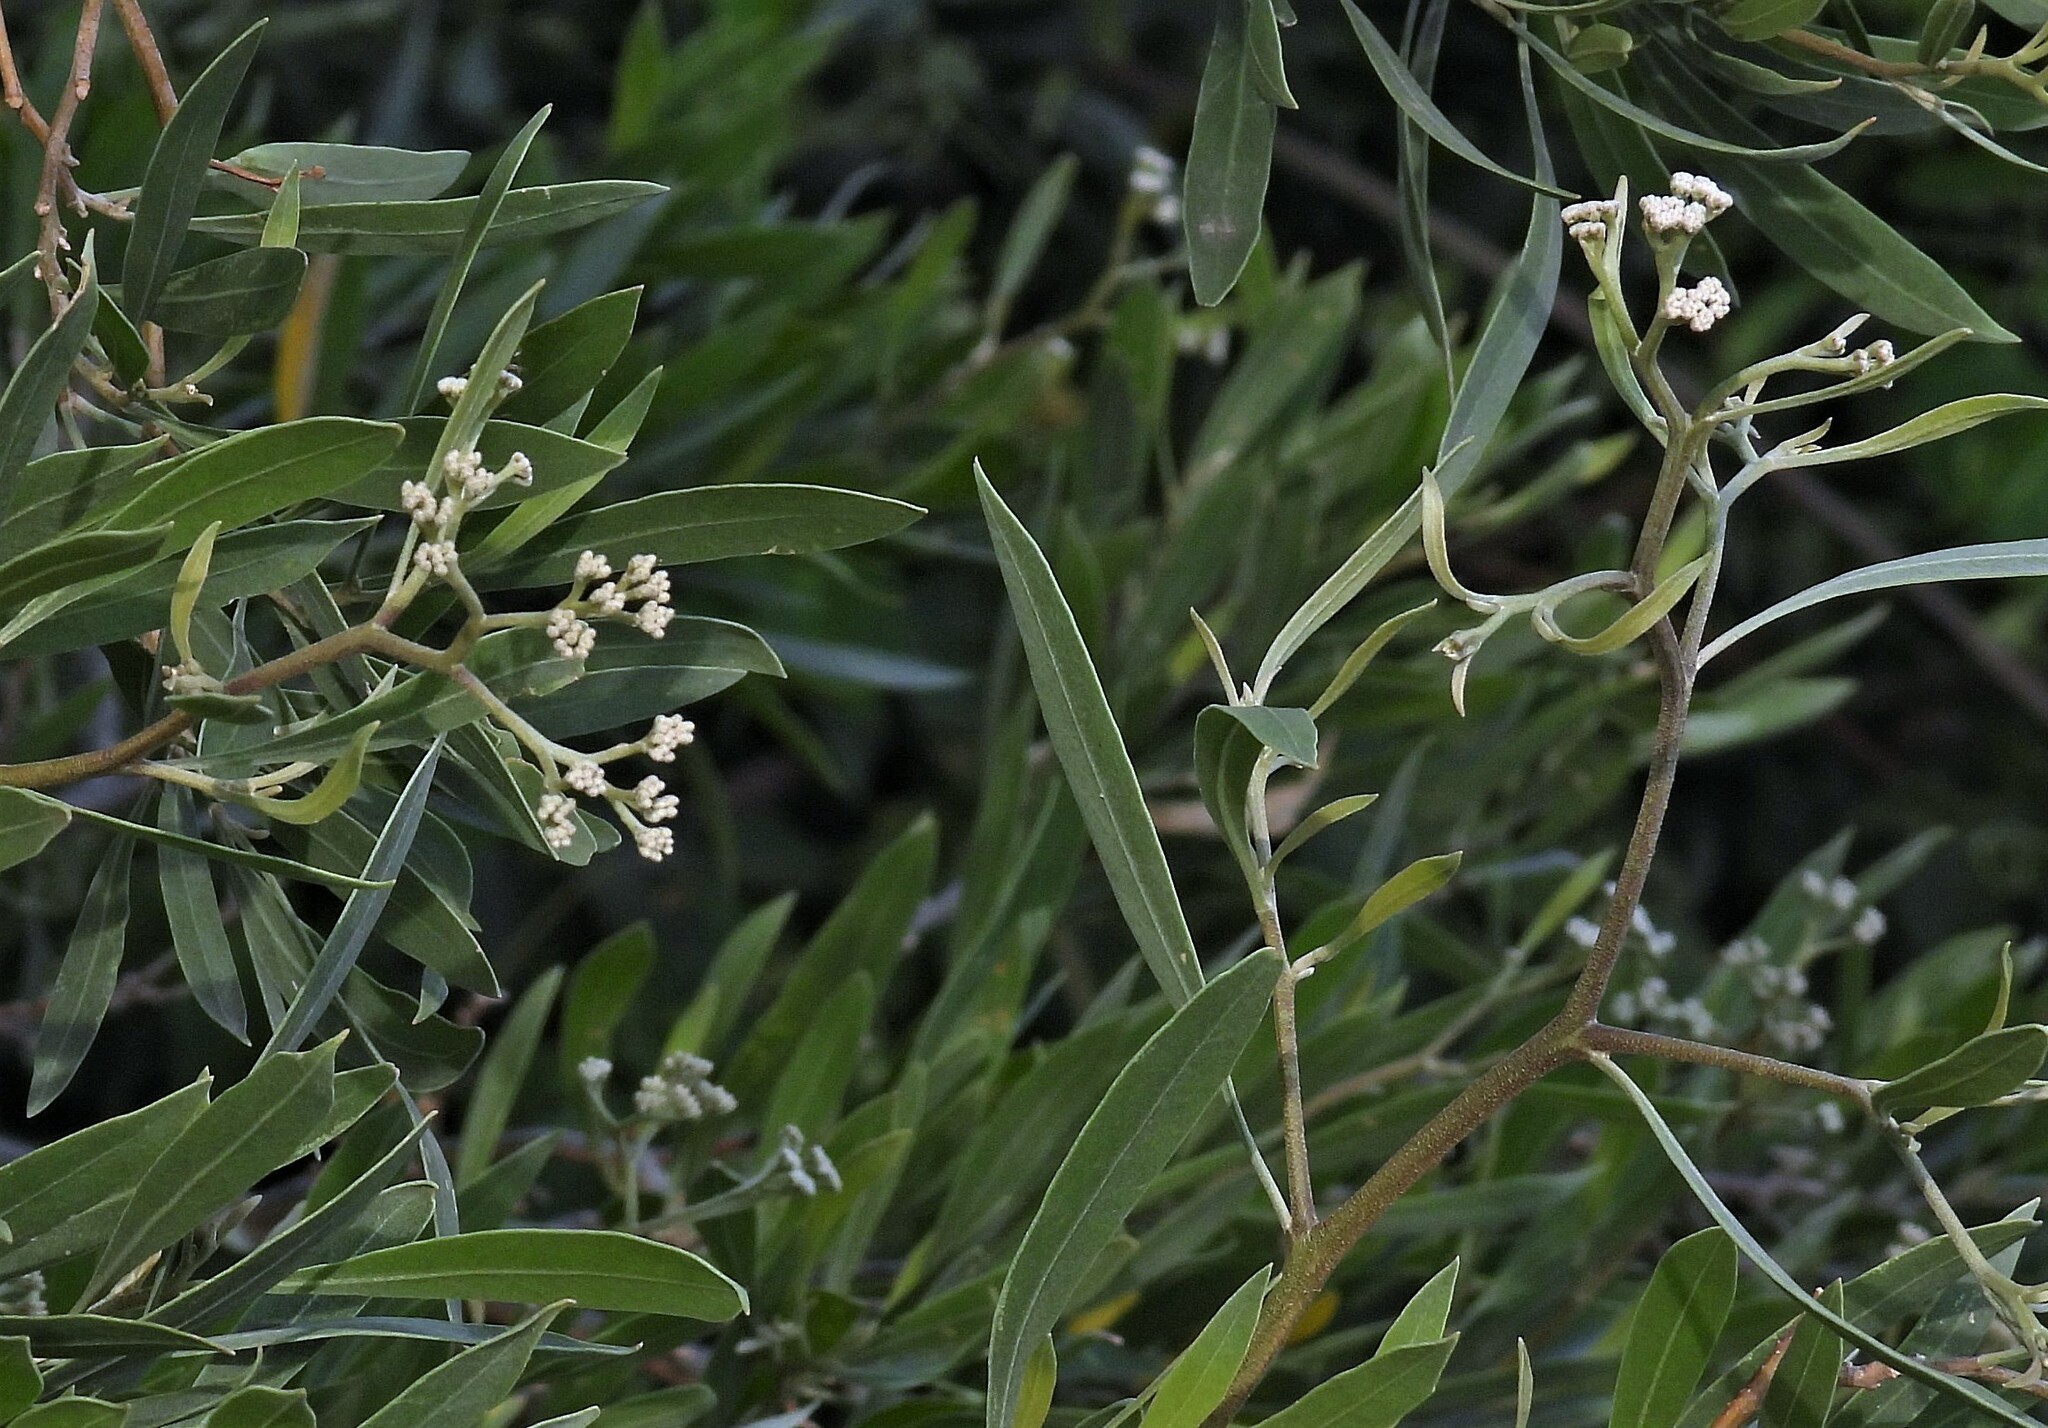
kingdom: Plantae
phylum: Tracheophyta
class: Magnoliopsida
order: Asterales
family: Asteraceae
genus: Tessaria
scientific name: Tessaria integrifolia
